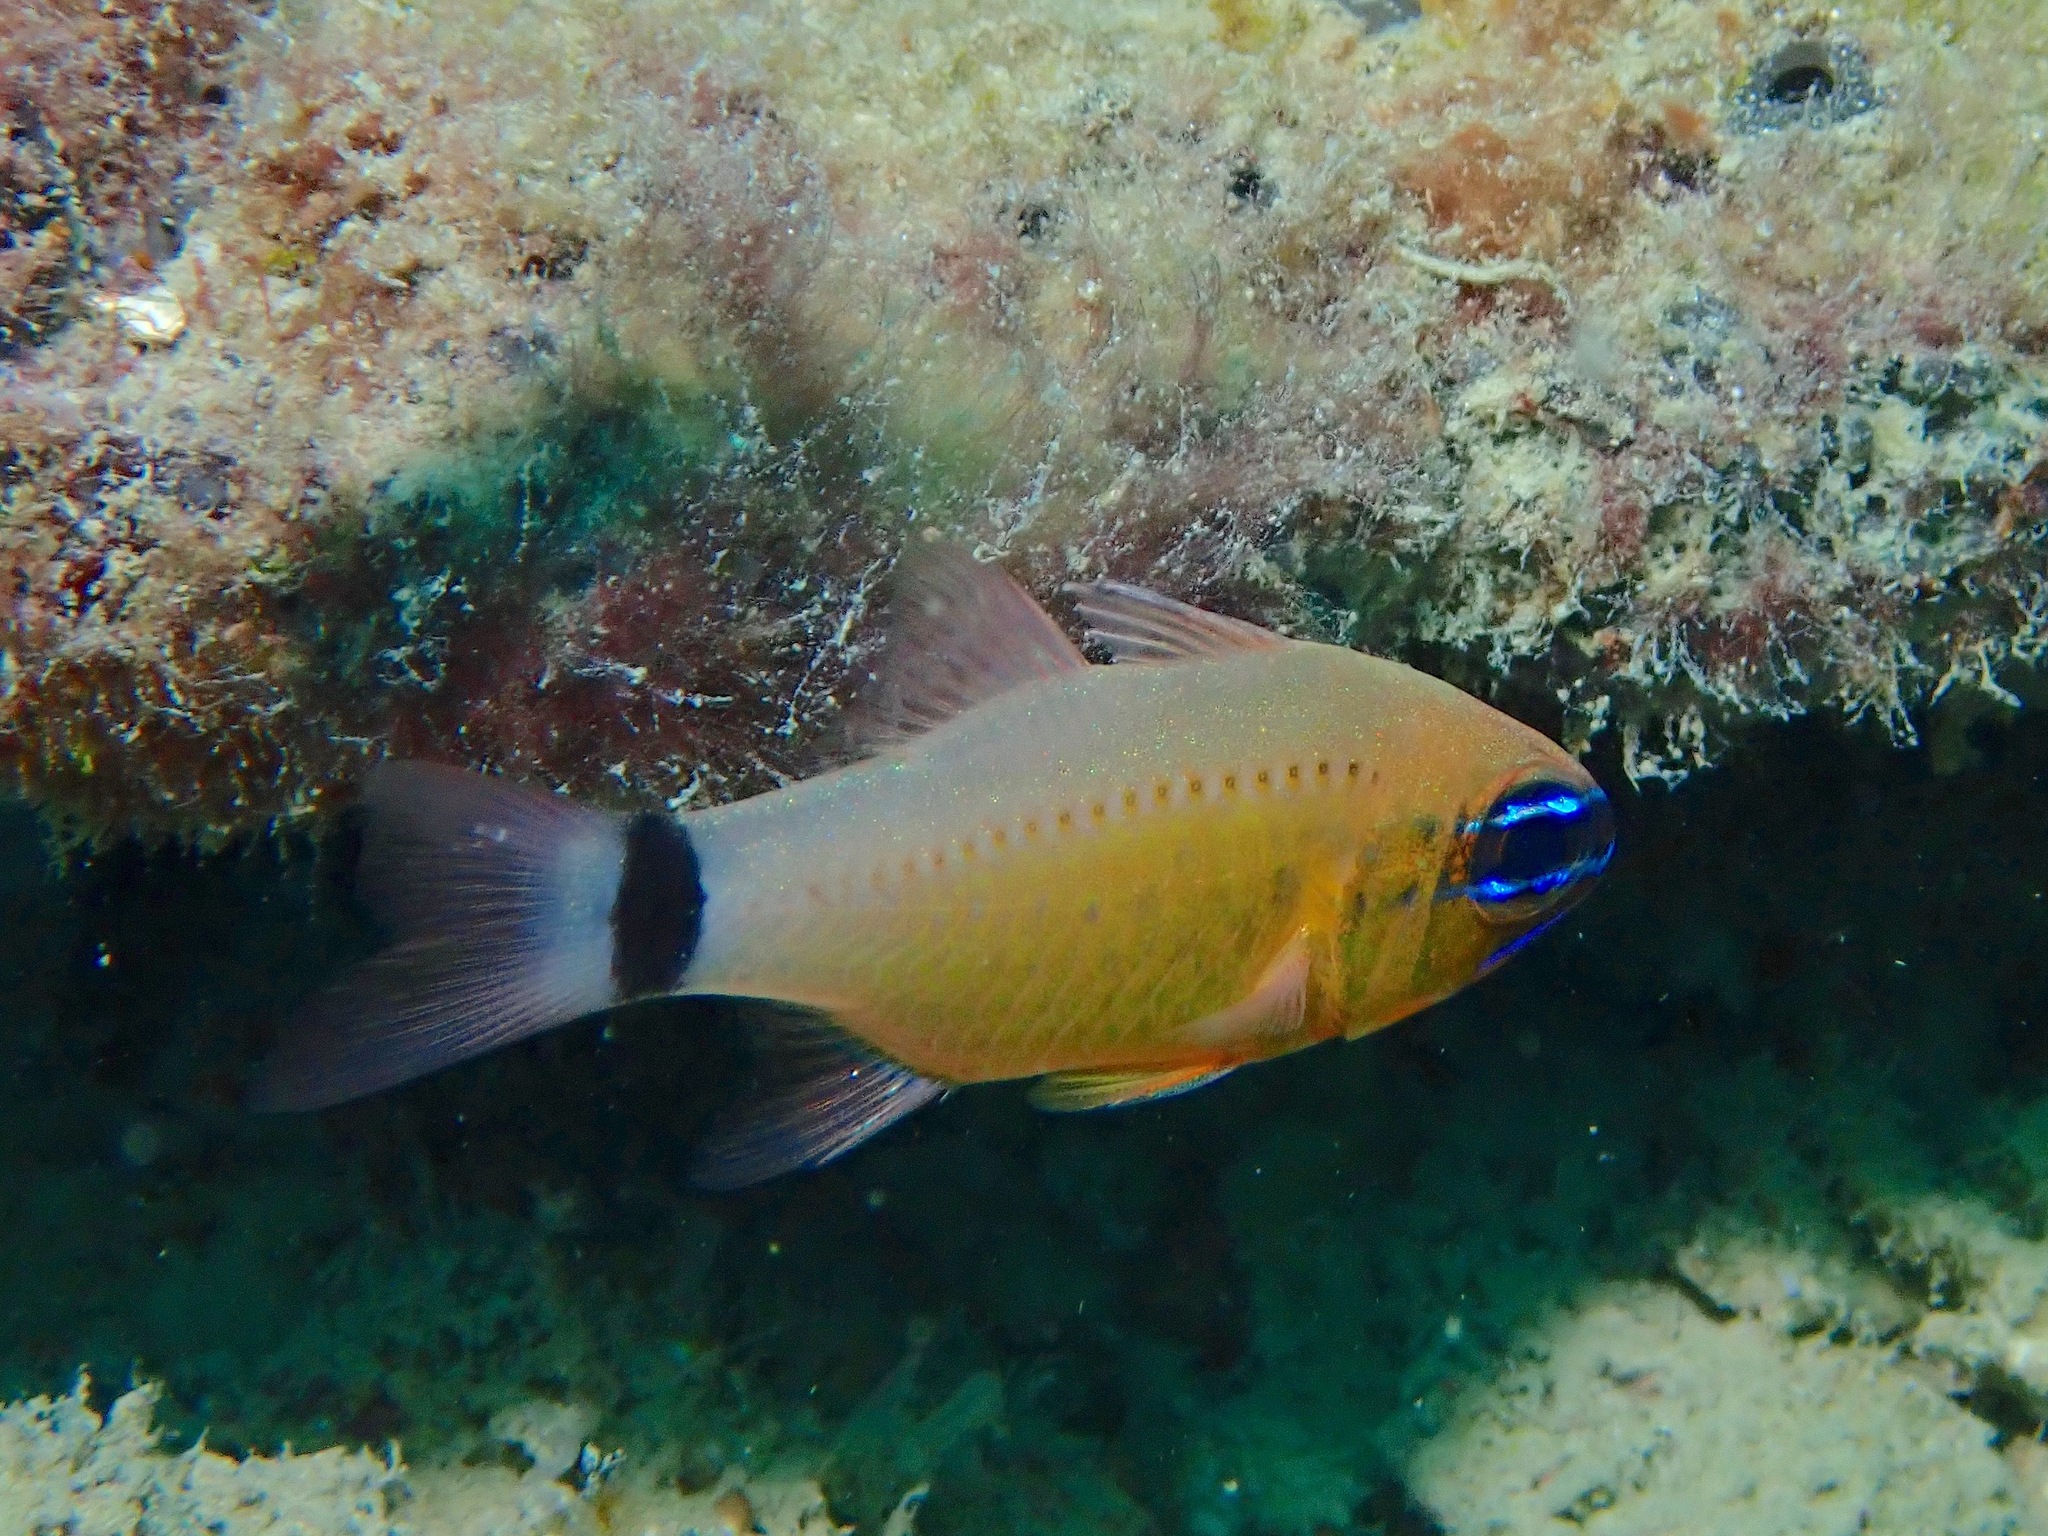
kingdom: Animalia
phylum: Chordata
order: Perciformes
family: Apogonidae
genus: Ostorhinchus
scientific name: Ostorhinchus fleurieu
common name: Bullseye cardinalfish
